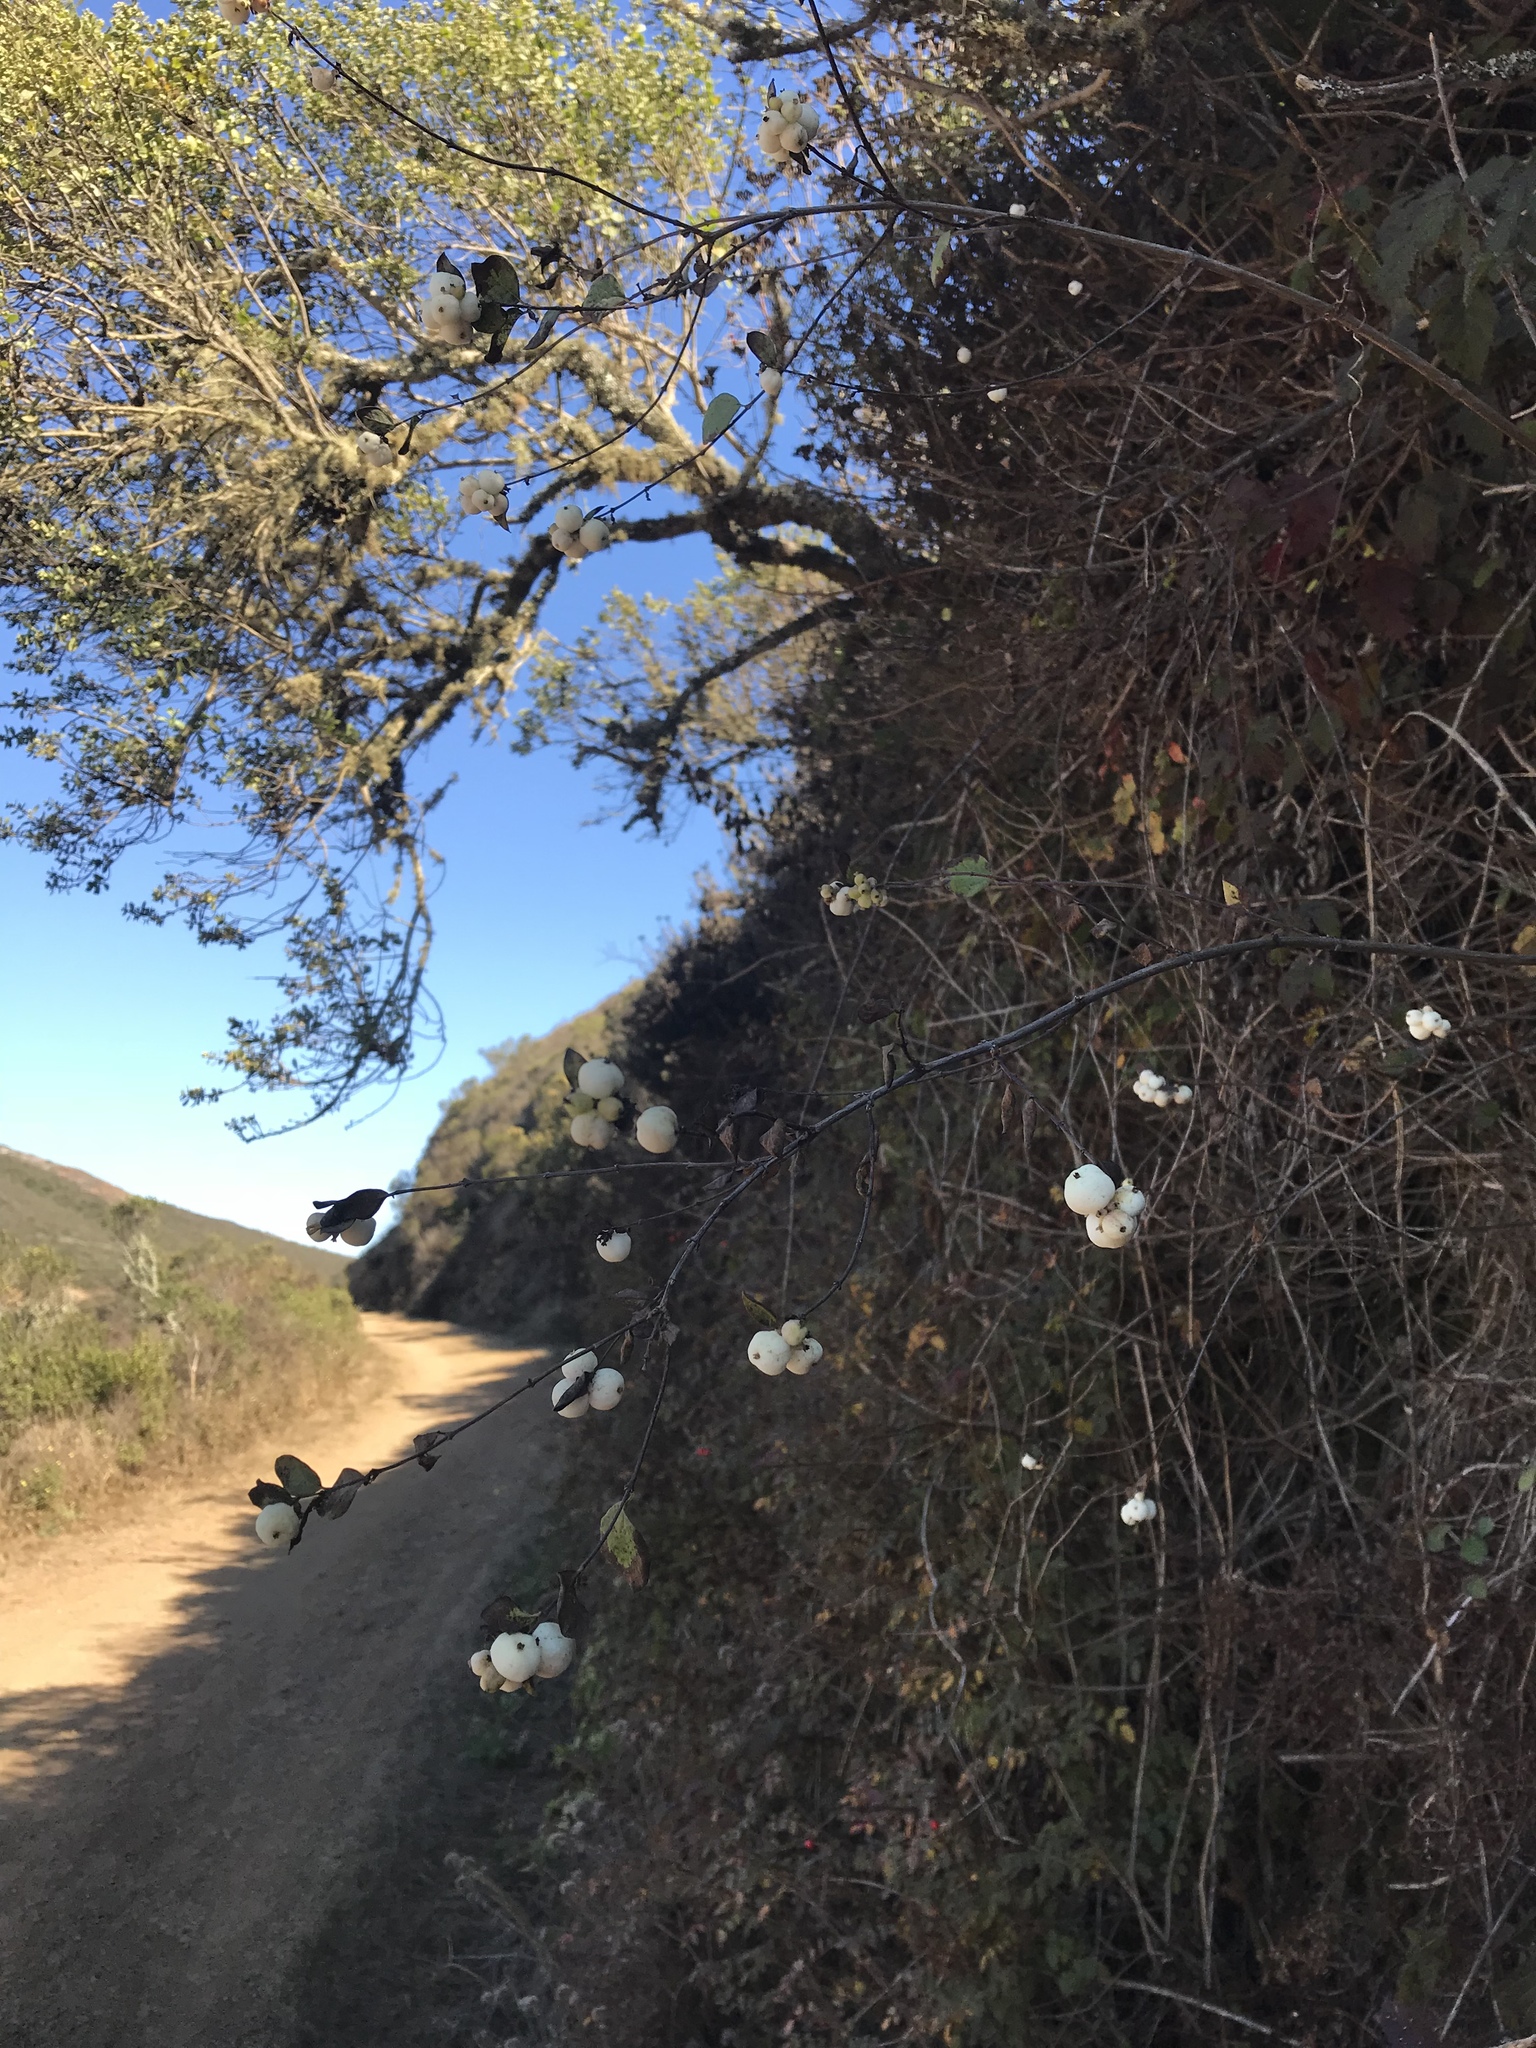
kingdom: Plantae
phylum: Tracheophyta
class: Magnoliopsida
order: Dipsacales
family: Caprifoliaceae
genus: Symphoricarpos
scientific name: Symphoricarpos albus
